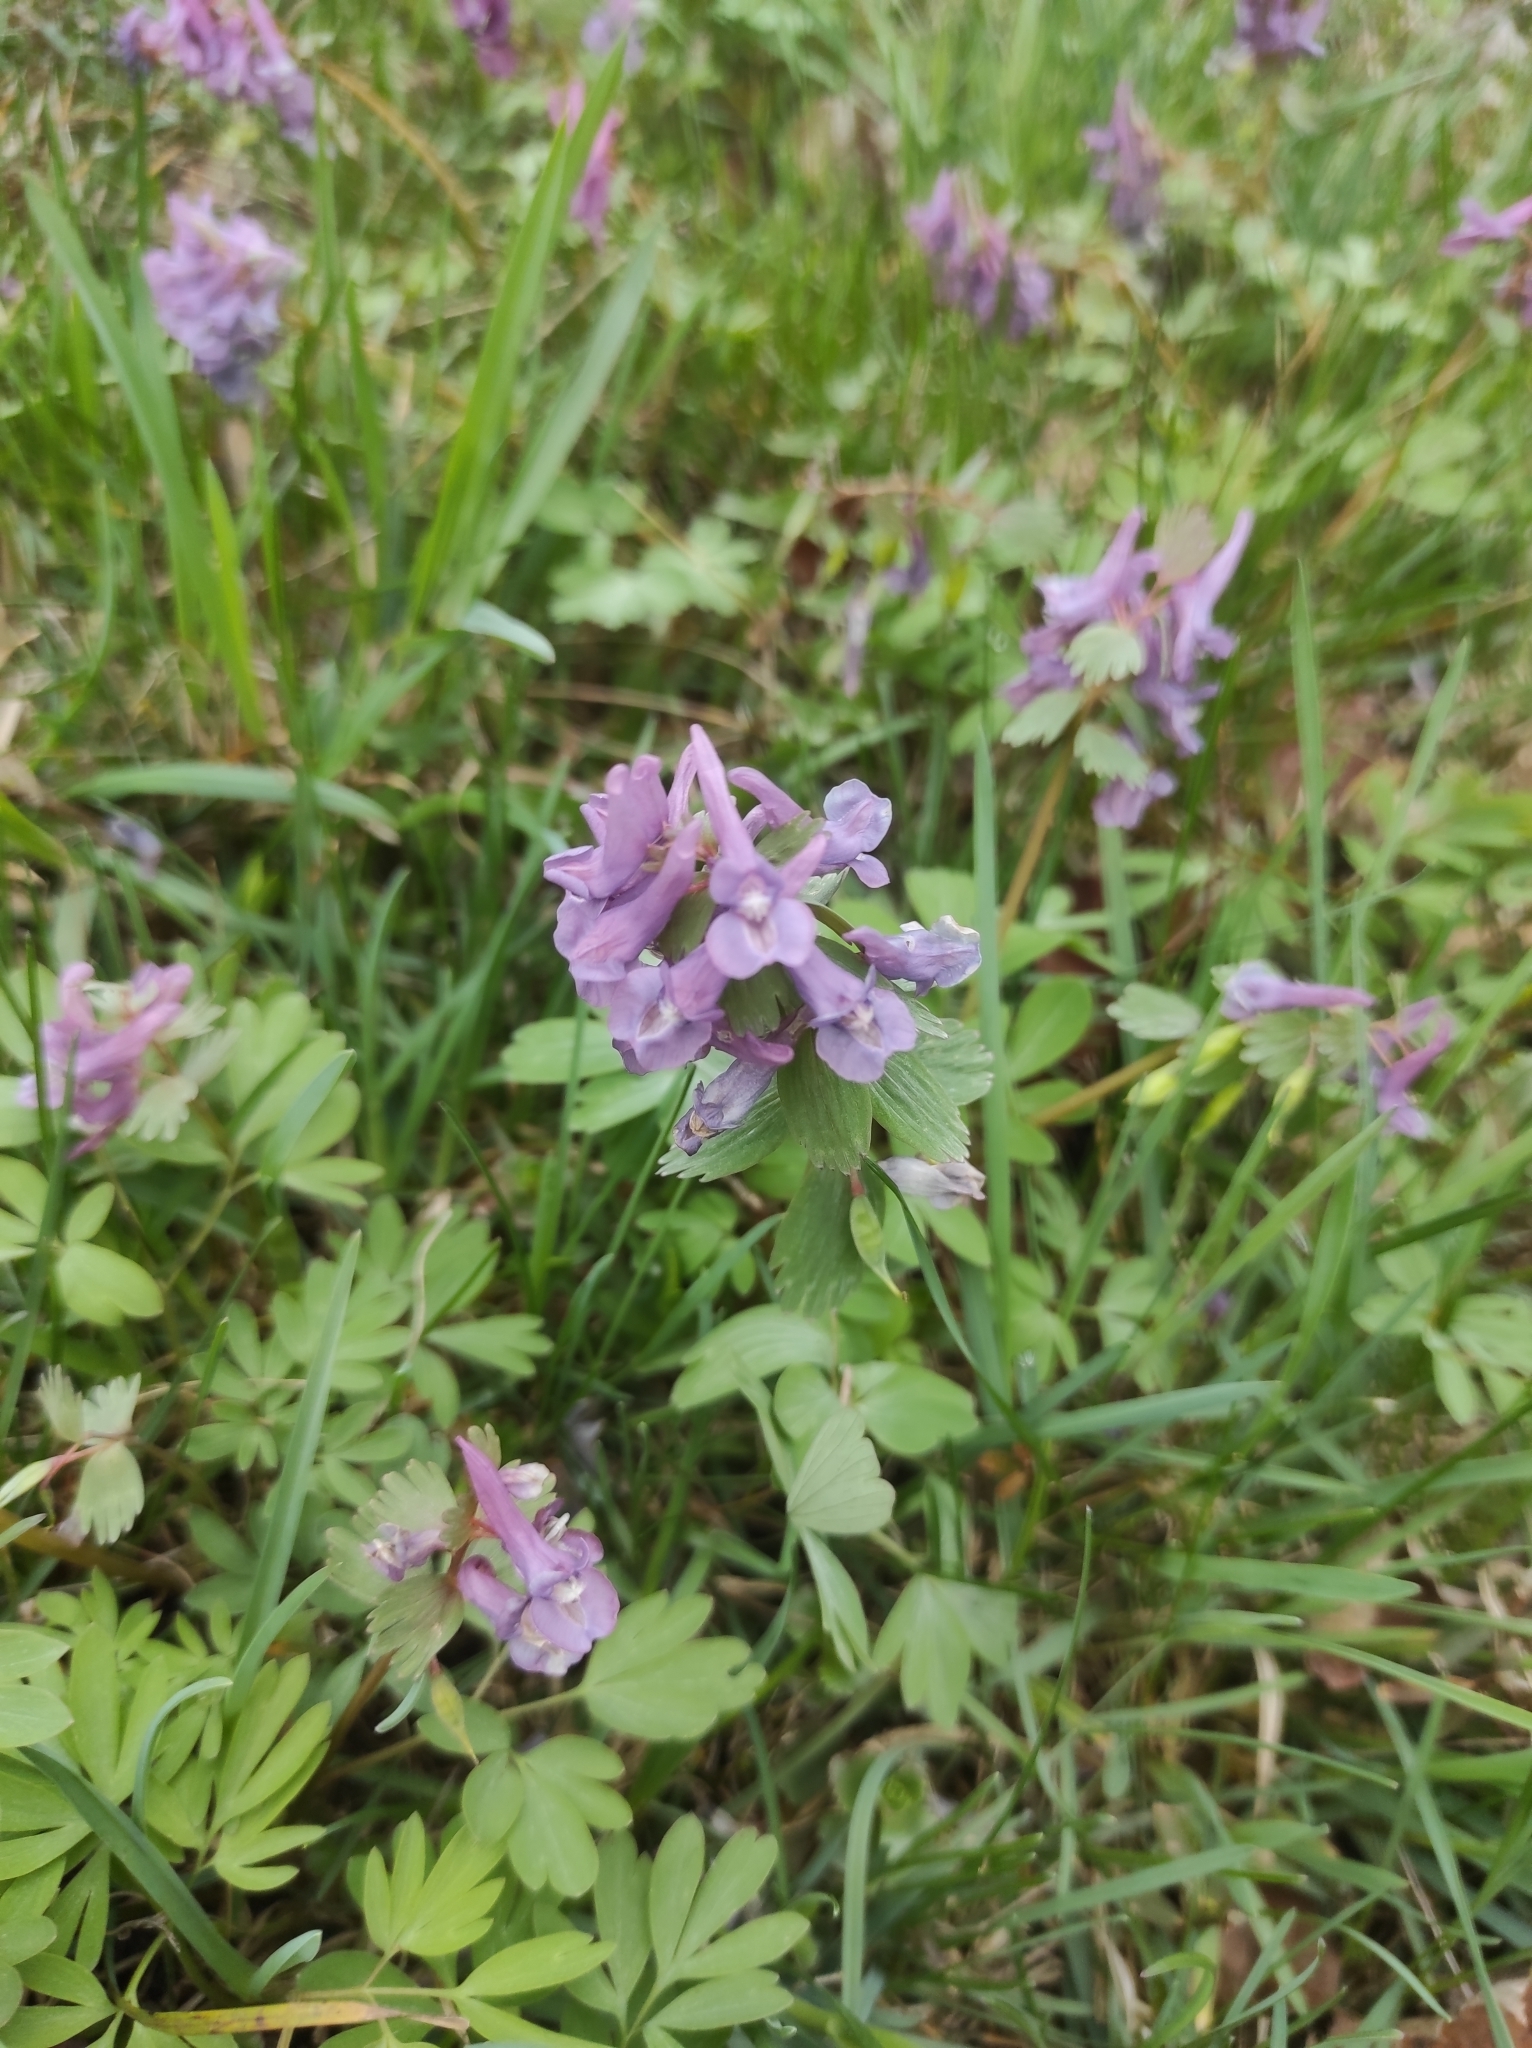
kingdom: Plantae
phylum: Tracheophyta
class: Magnoliopsida
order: Ranunculales
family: Papaveraceae
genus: Corydalis
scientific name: Corydalis solida
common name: Bird-in-a-bush
